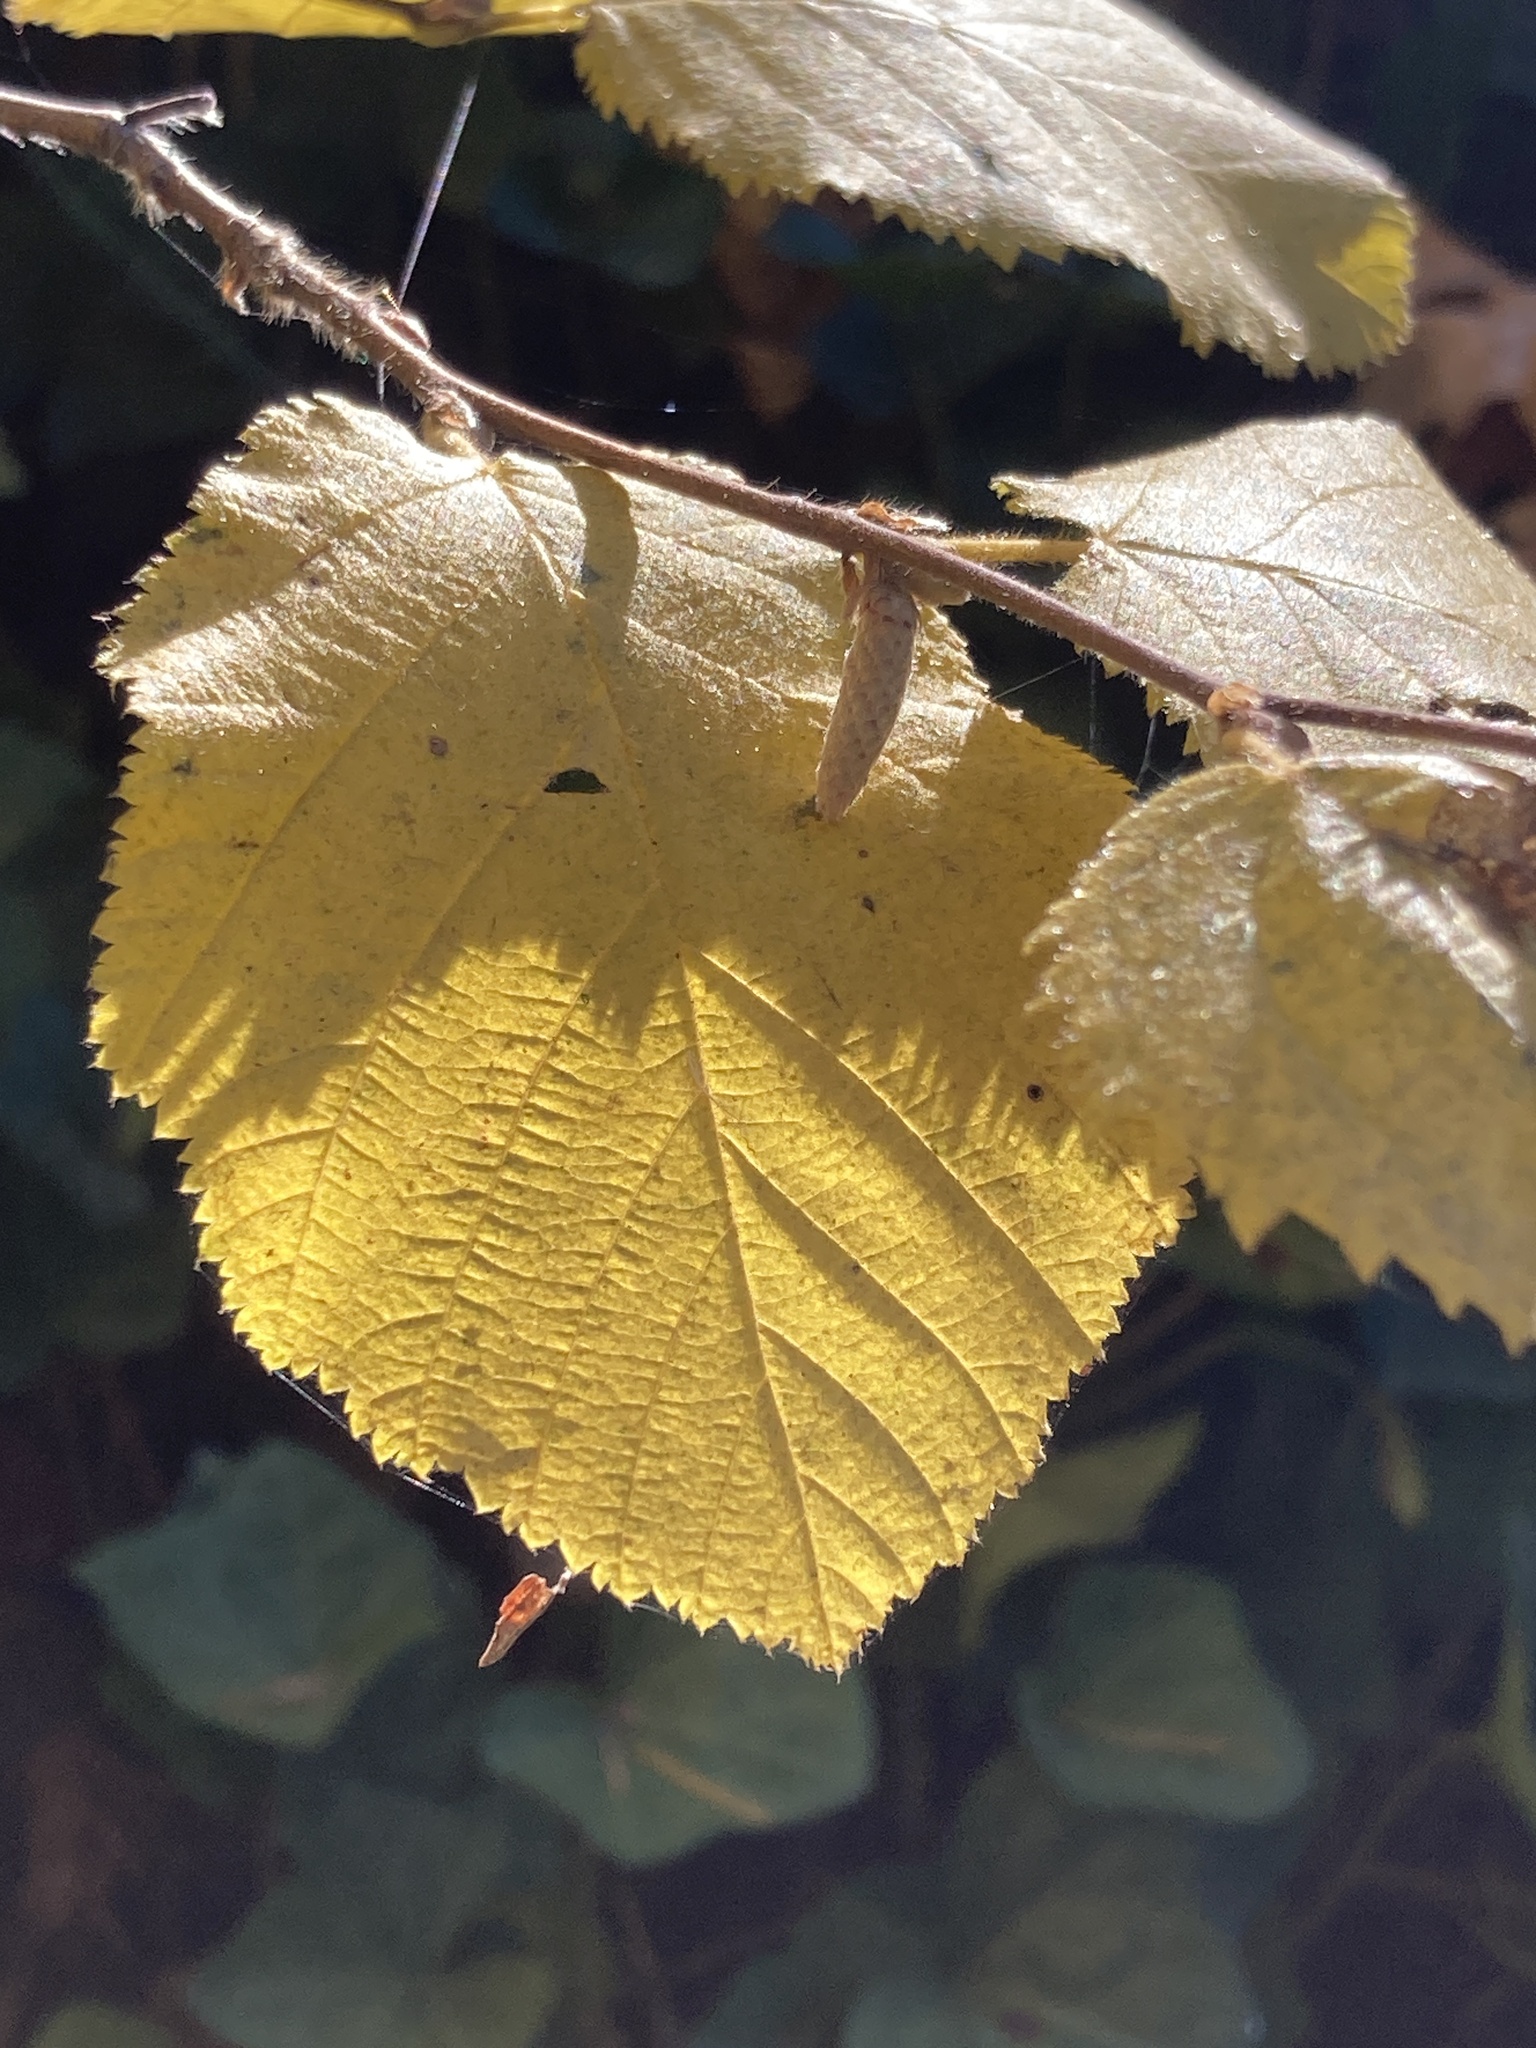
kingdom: Plantae
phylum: Tracheophyta
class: Magnoliopsida
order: Fagales
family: Betulaceae
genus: Corylus
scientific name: Corylus cornuta
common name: Beaked hazel
